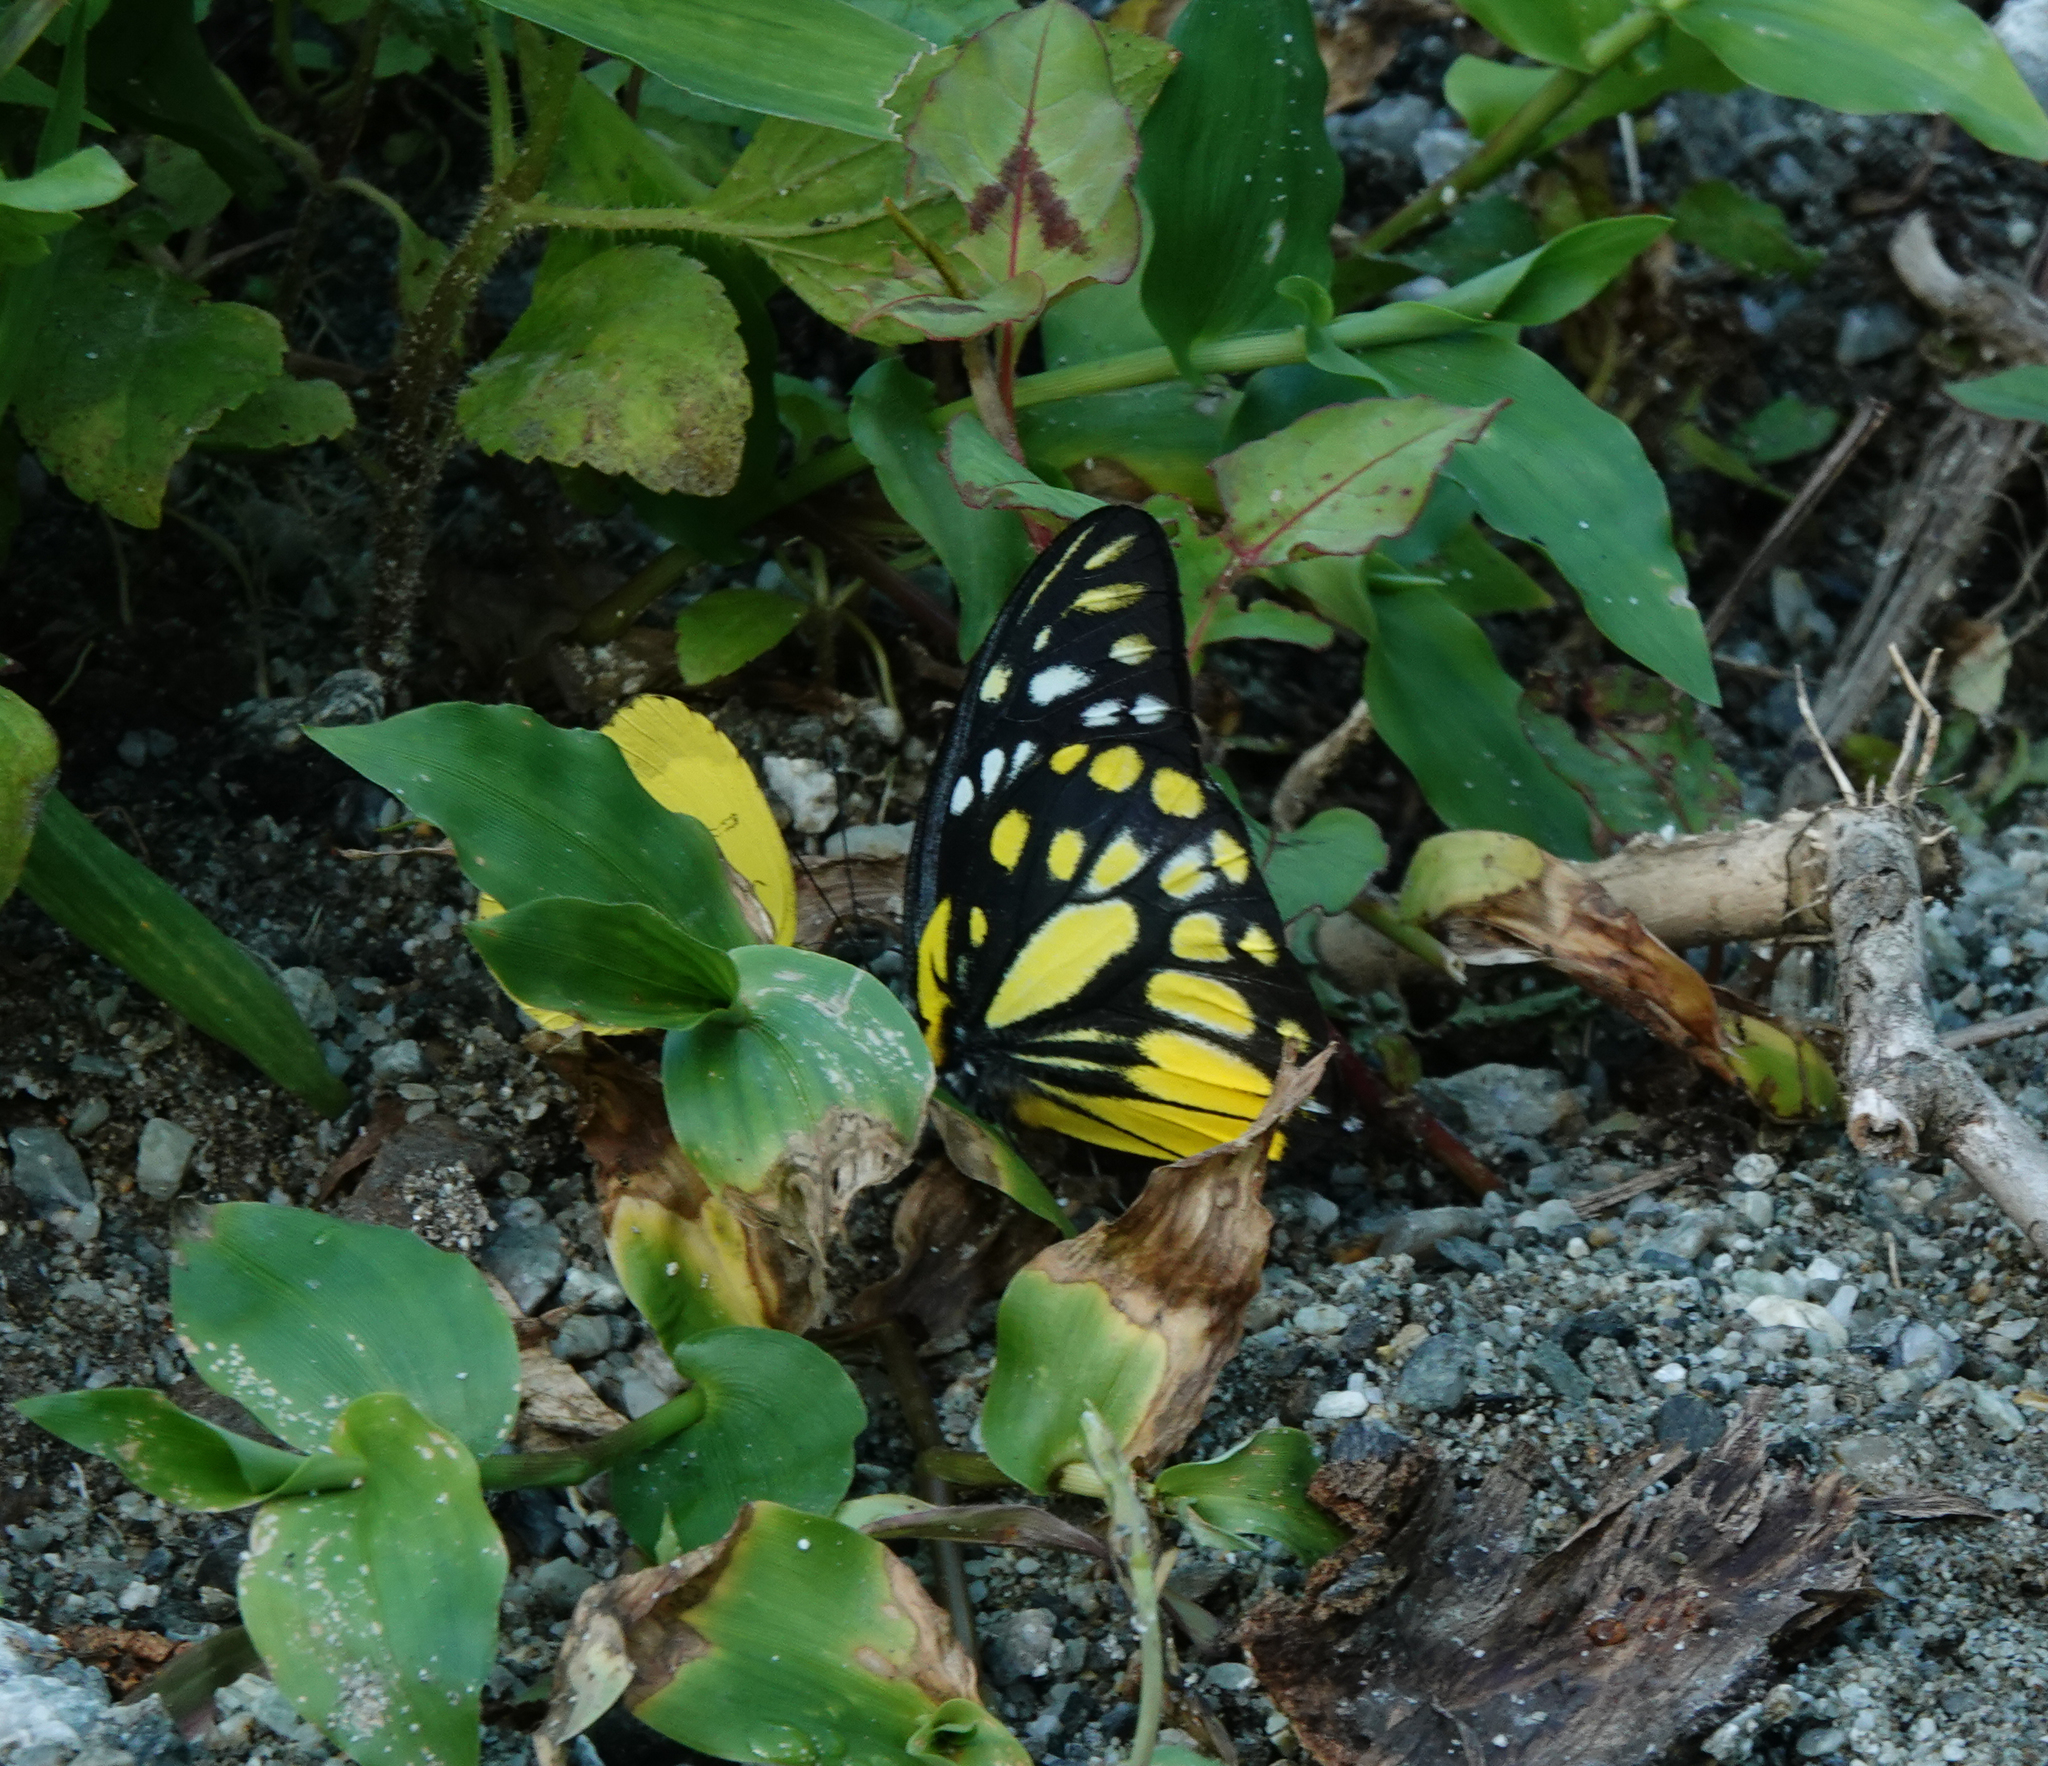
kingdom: Animalia
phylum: Arthropoda
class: Insecta
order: Lepidoptera
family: Pieridae
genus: Prioneris
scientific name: Prioneris thestylis
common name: Spotted sawtooth
